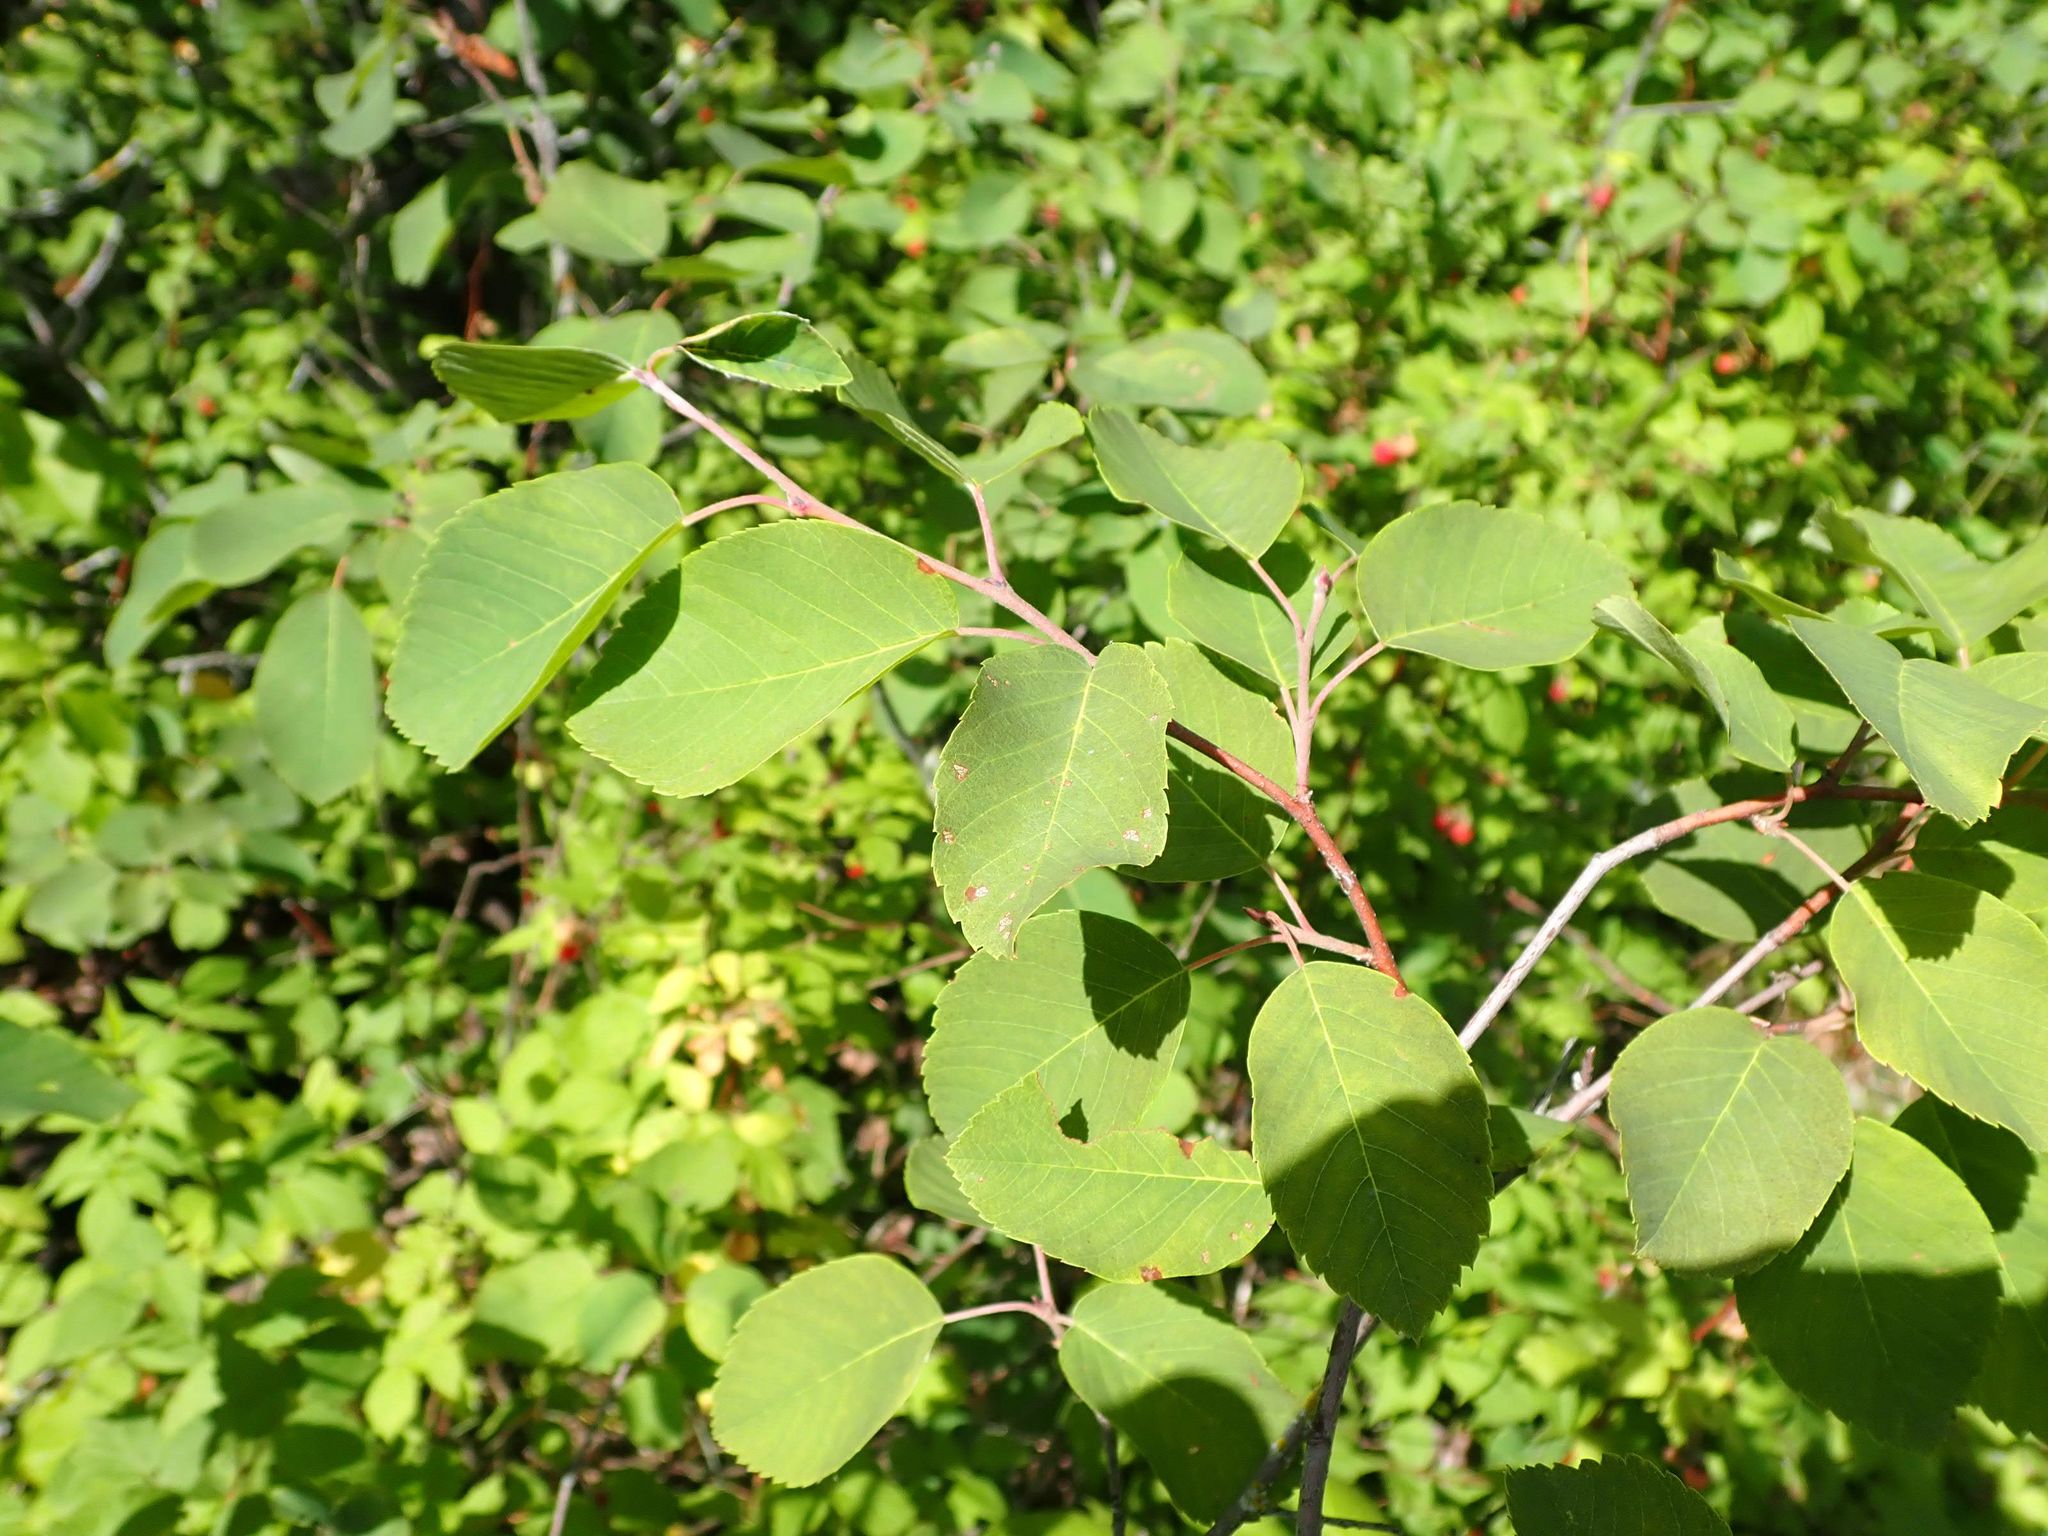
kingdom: Plantae
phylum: Tracheophyta
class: Magnoliopsida
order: Rosales
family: Rosaceae
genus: Amelanchier
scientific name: Amelanchier alnifolia
